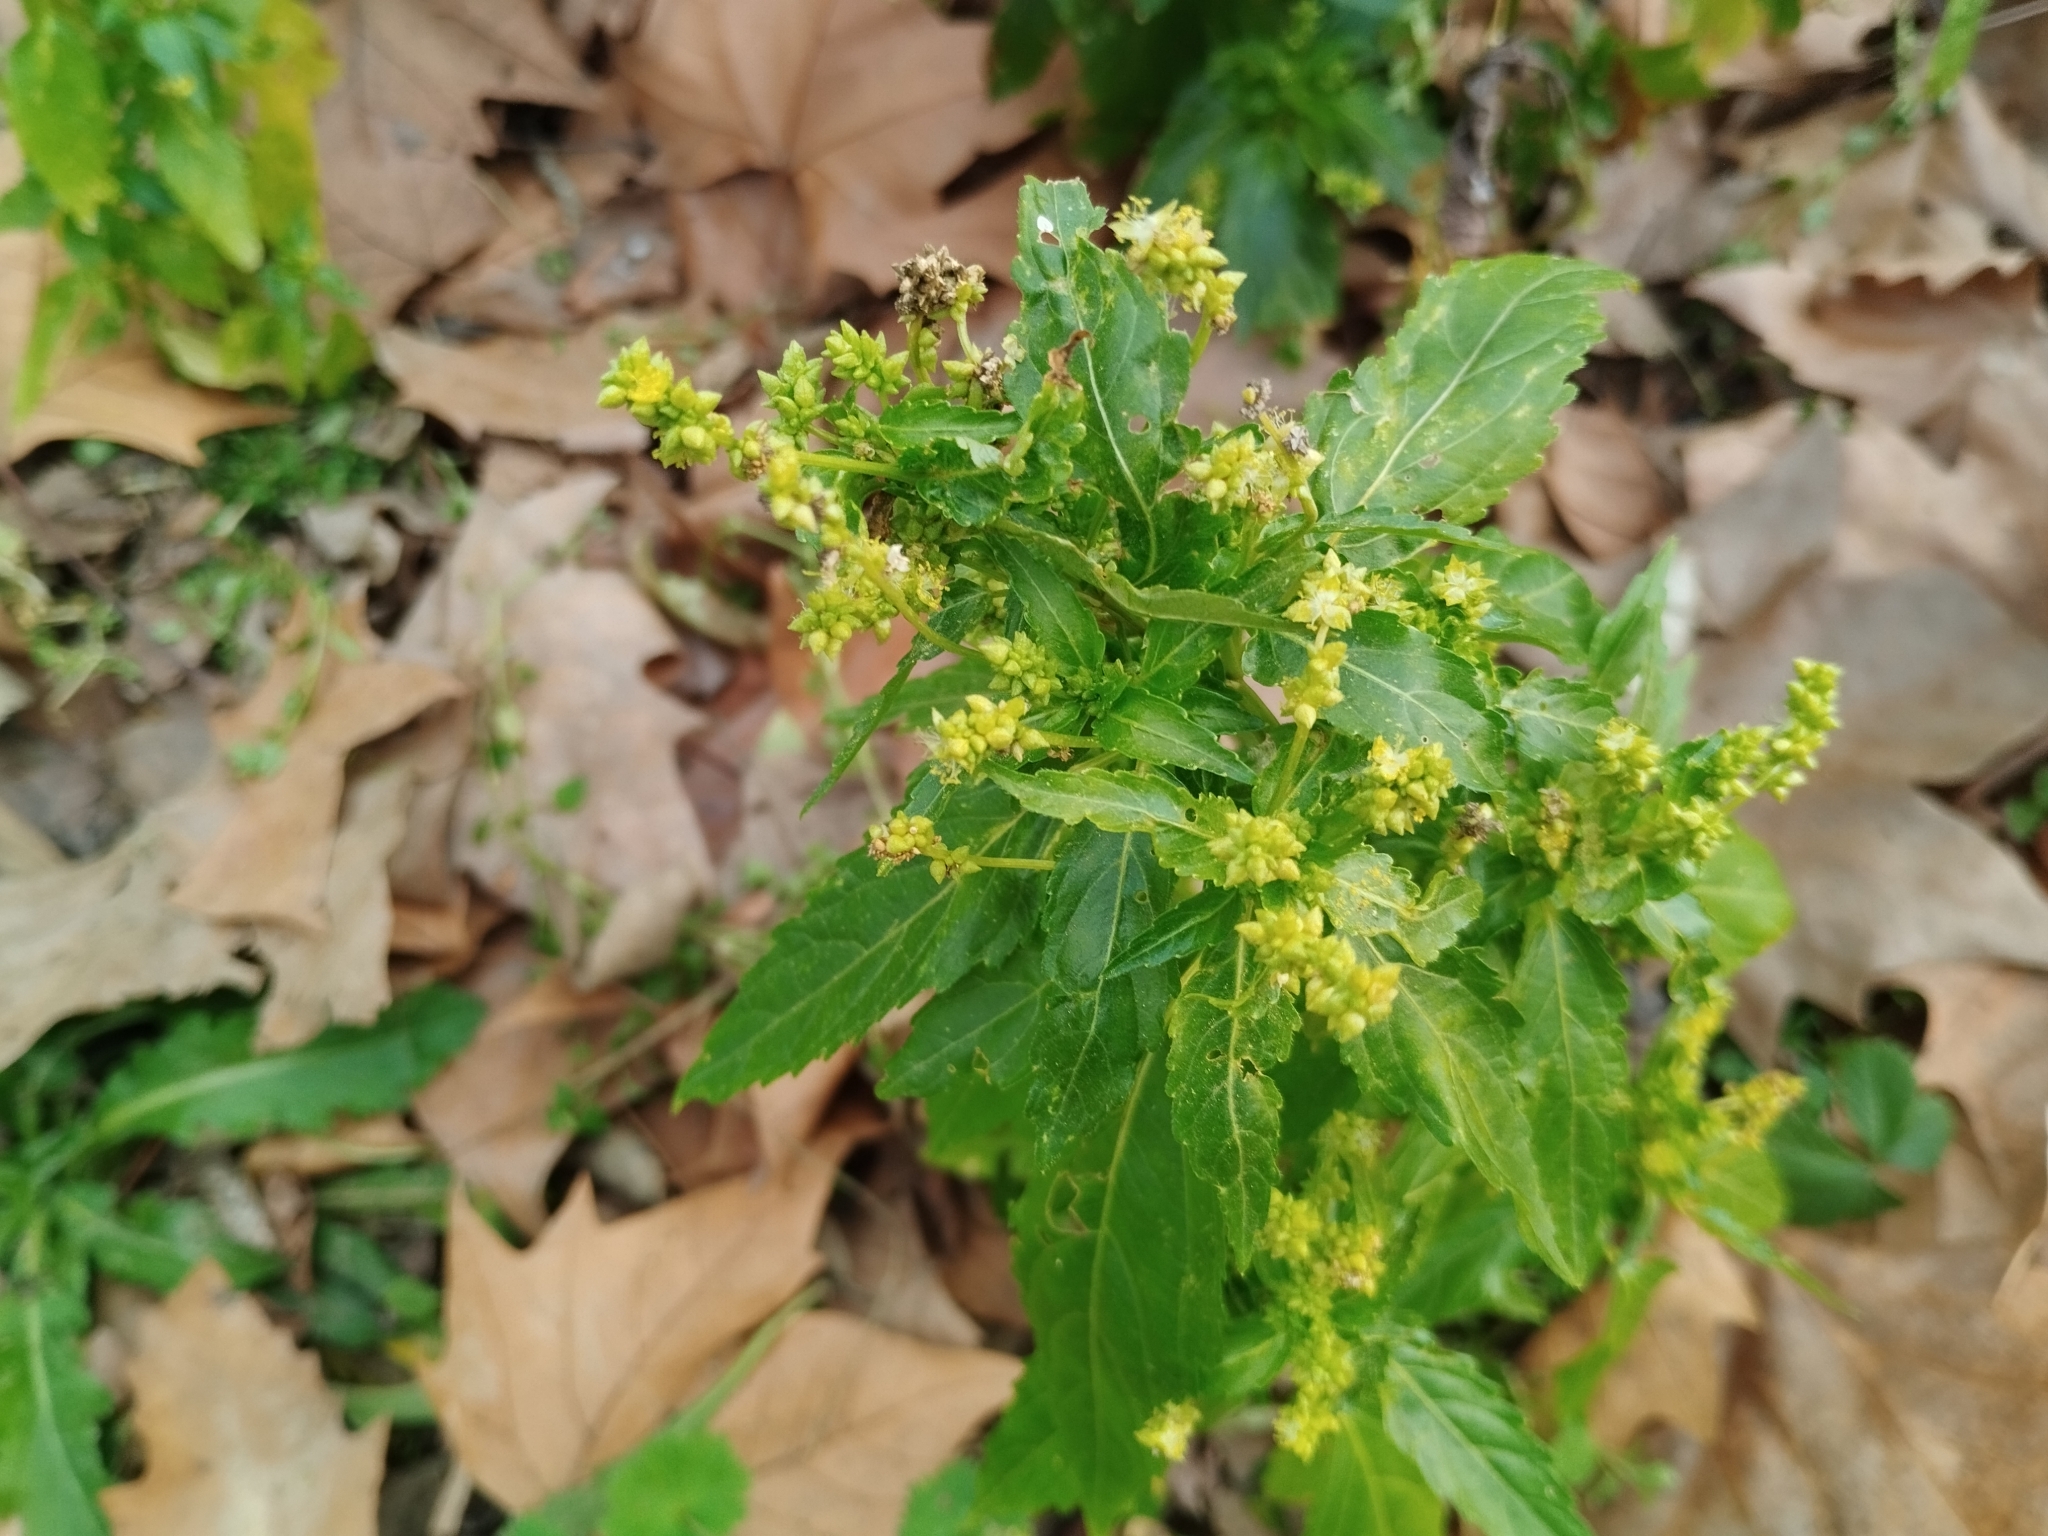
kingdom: Plantae
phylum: Tracheophyta
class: Magnoliopsida
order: Malpighiales
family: Euphorbiaceae
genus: Mercurialis
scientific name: Mercurialis annua
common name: Annual mercury
